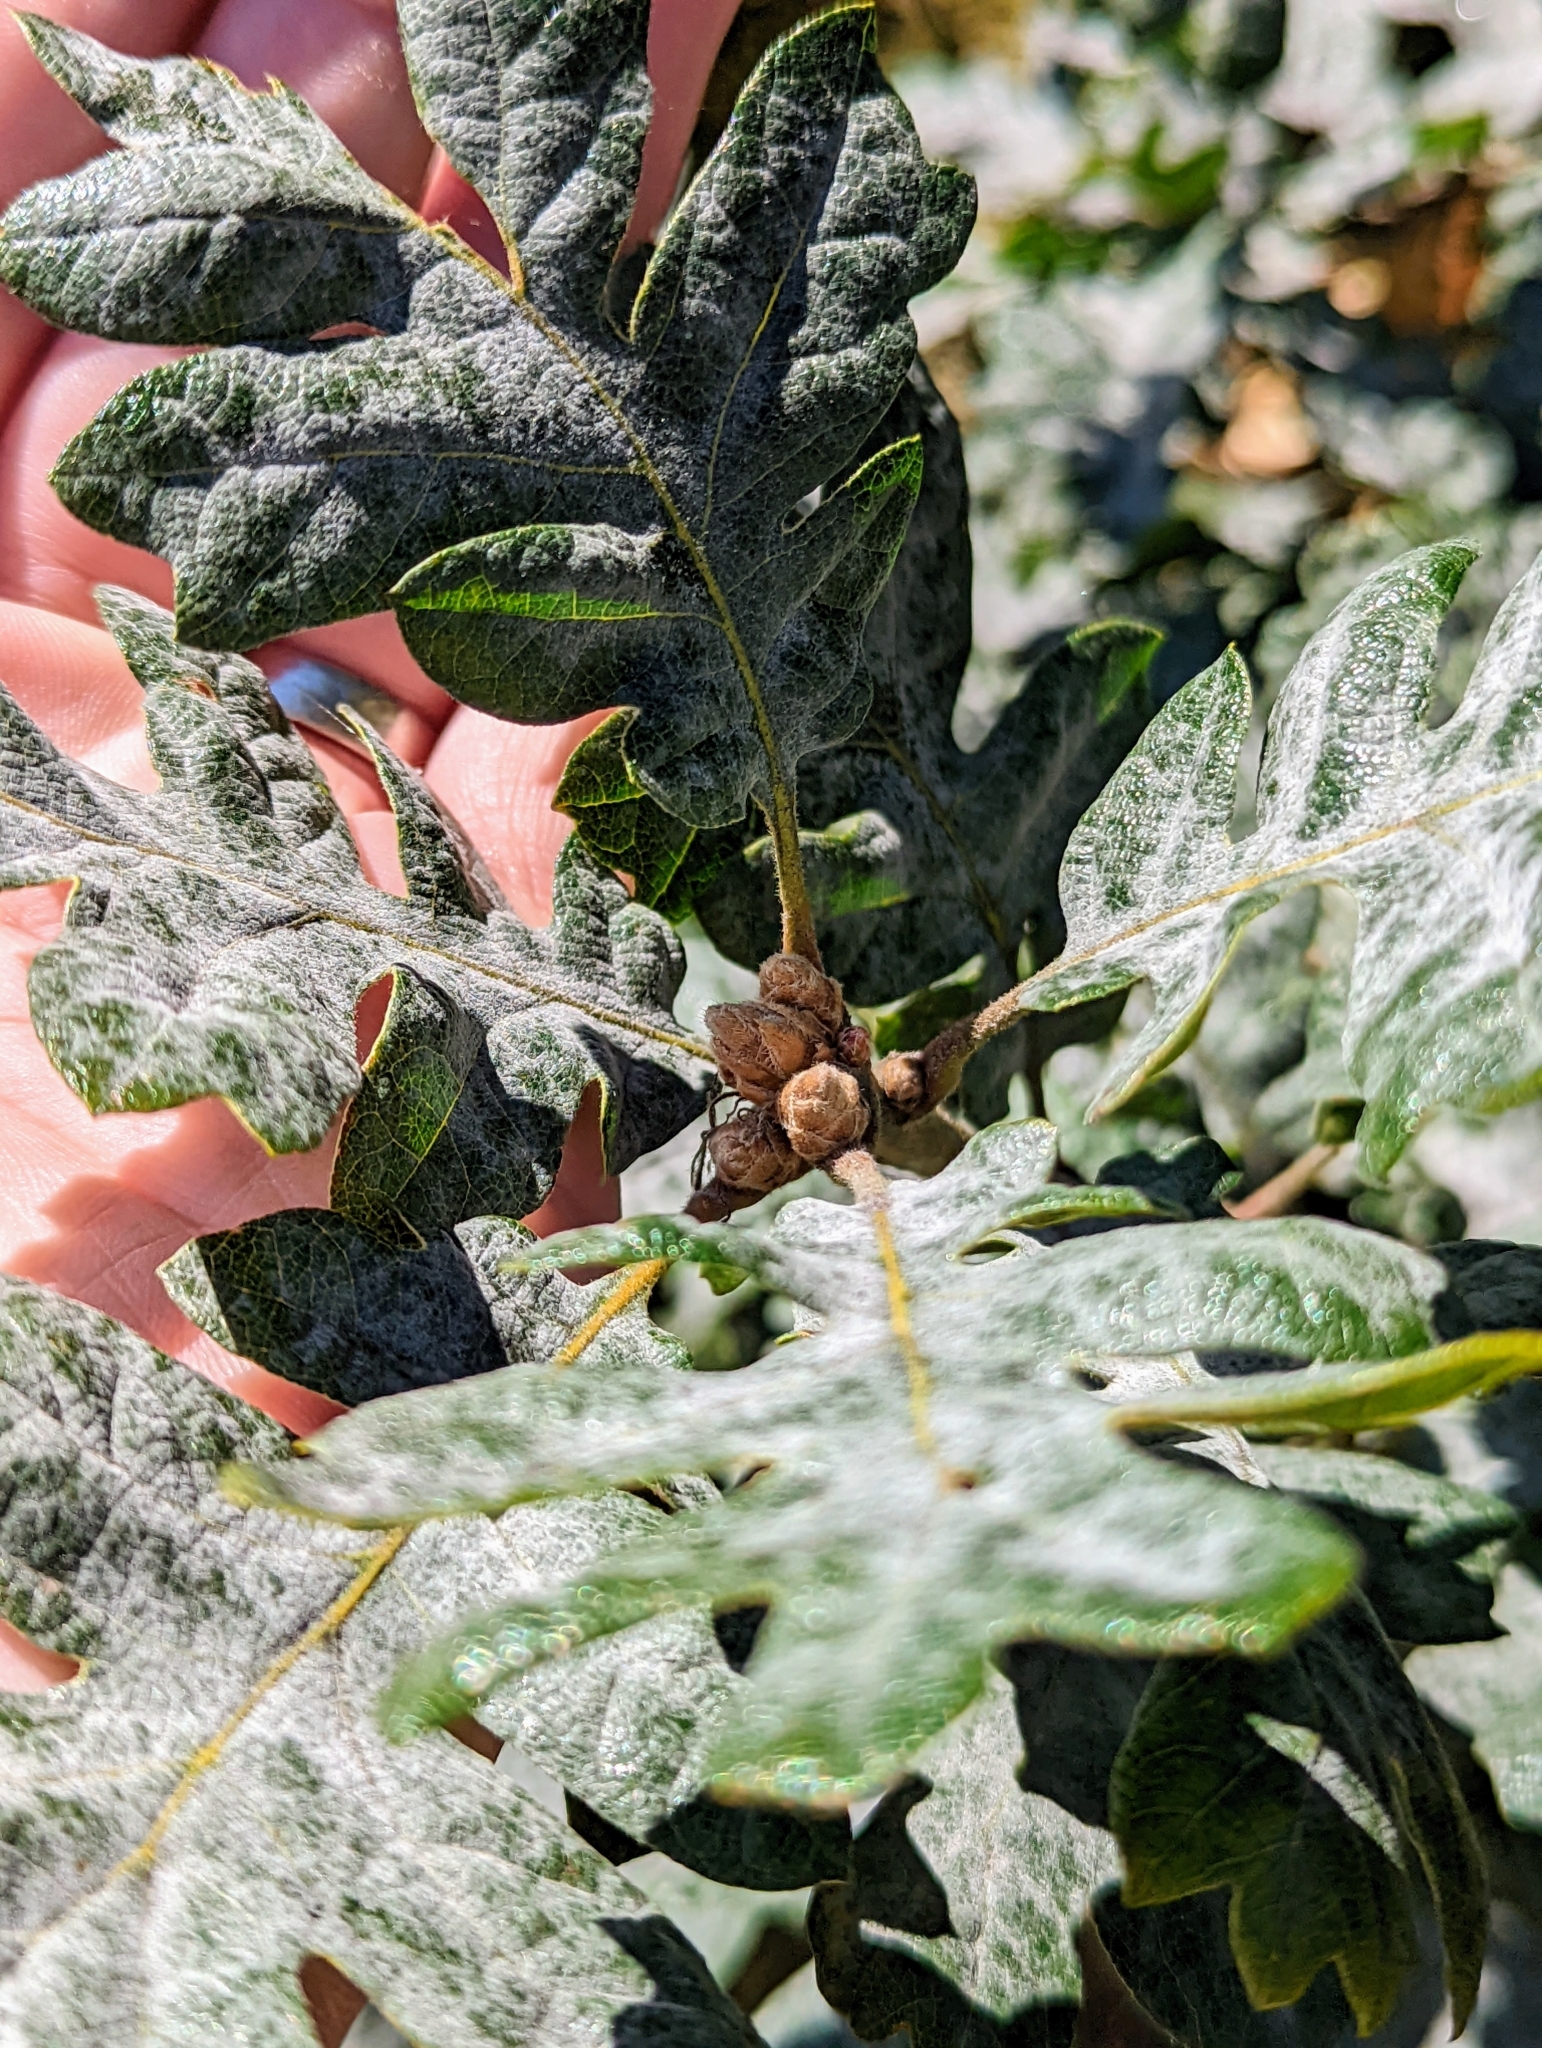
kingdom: Plantae
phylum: Tracheophyta
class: Magnoliopsida
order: Fagales
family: Fagaceae
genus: Quercus
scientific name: Quercus garryana
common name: Garry oak
